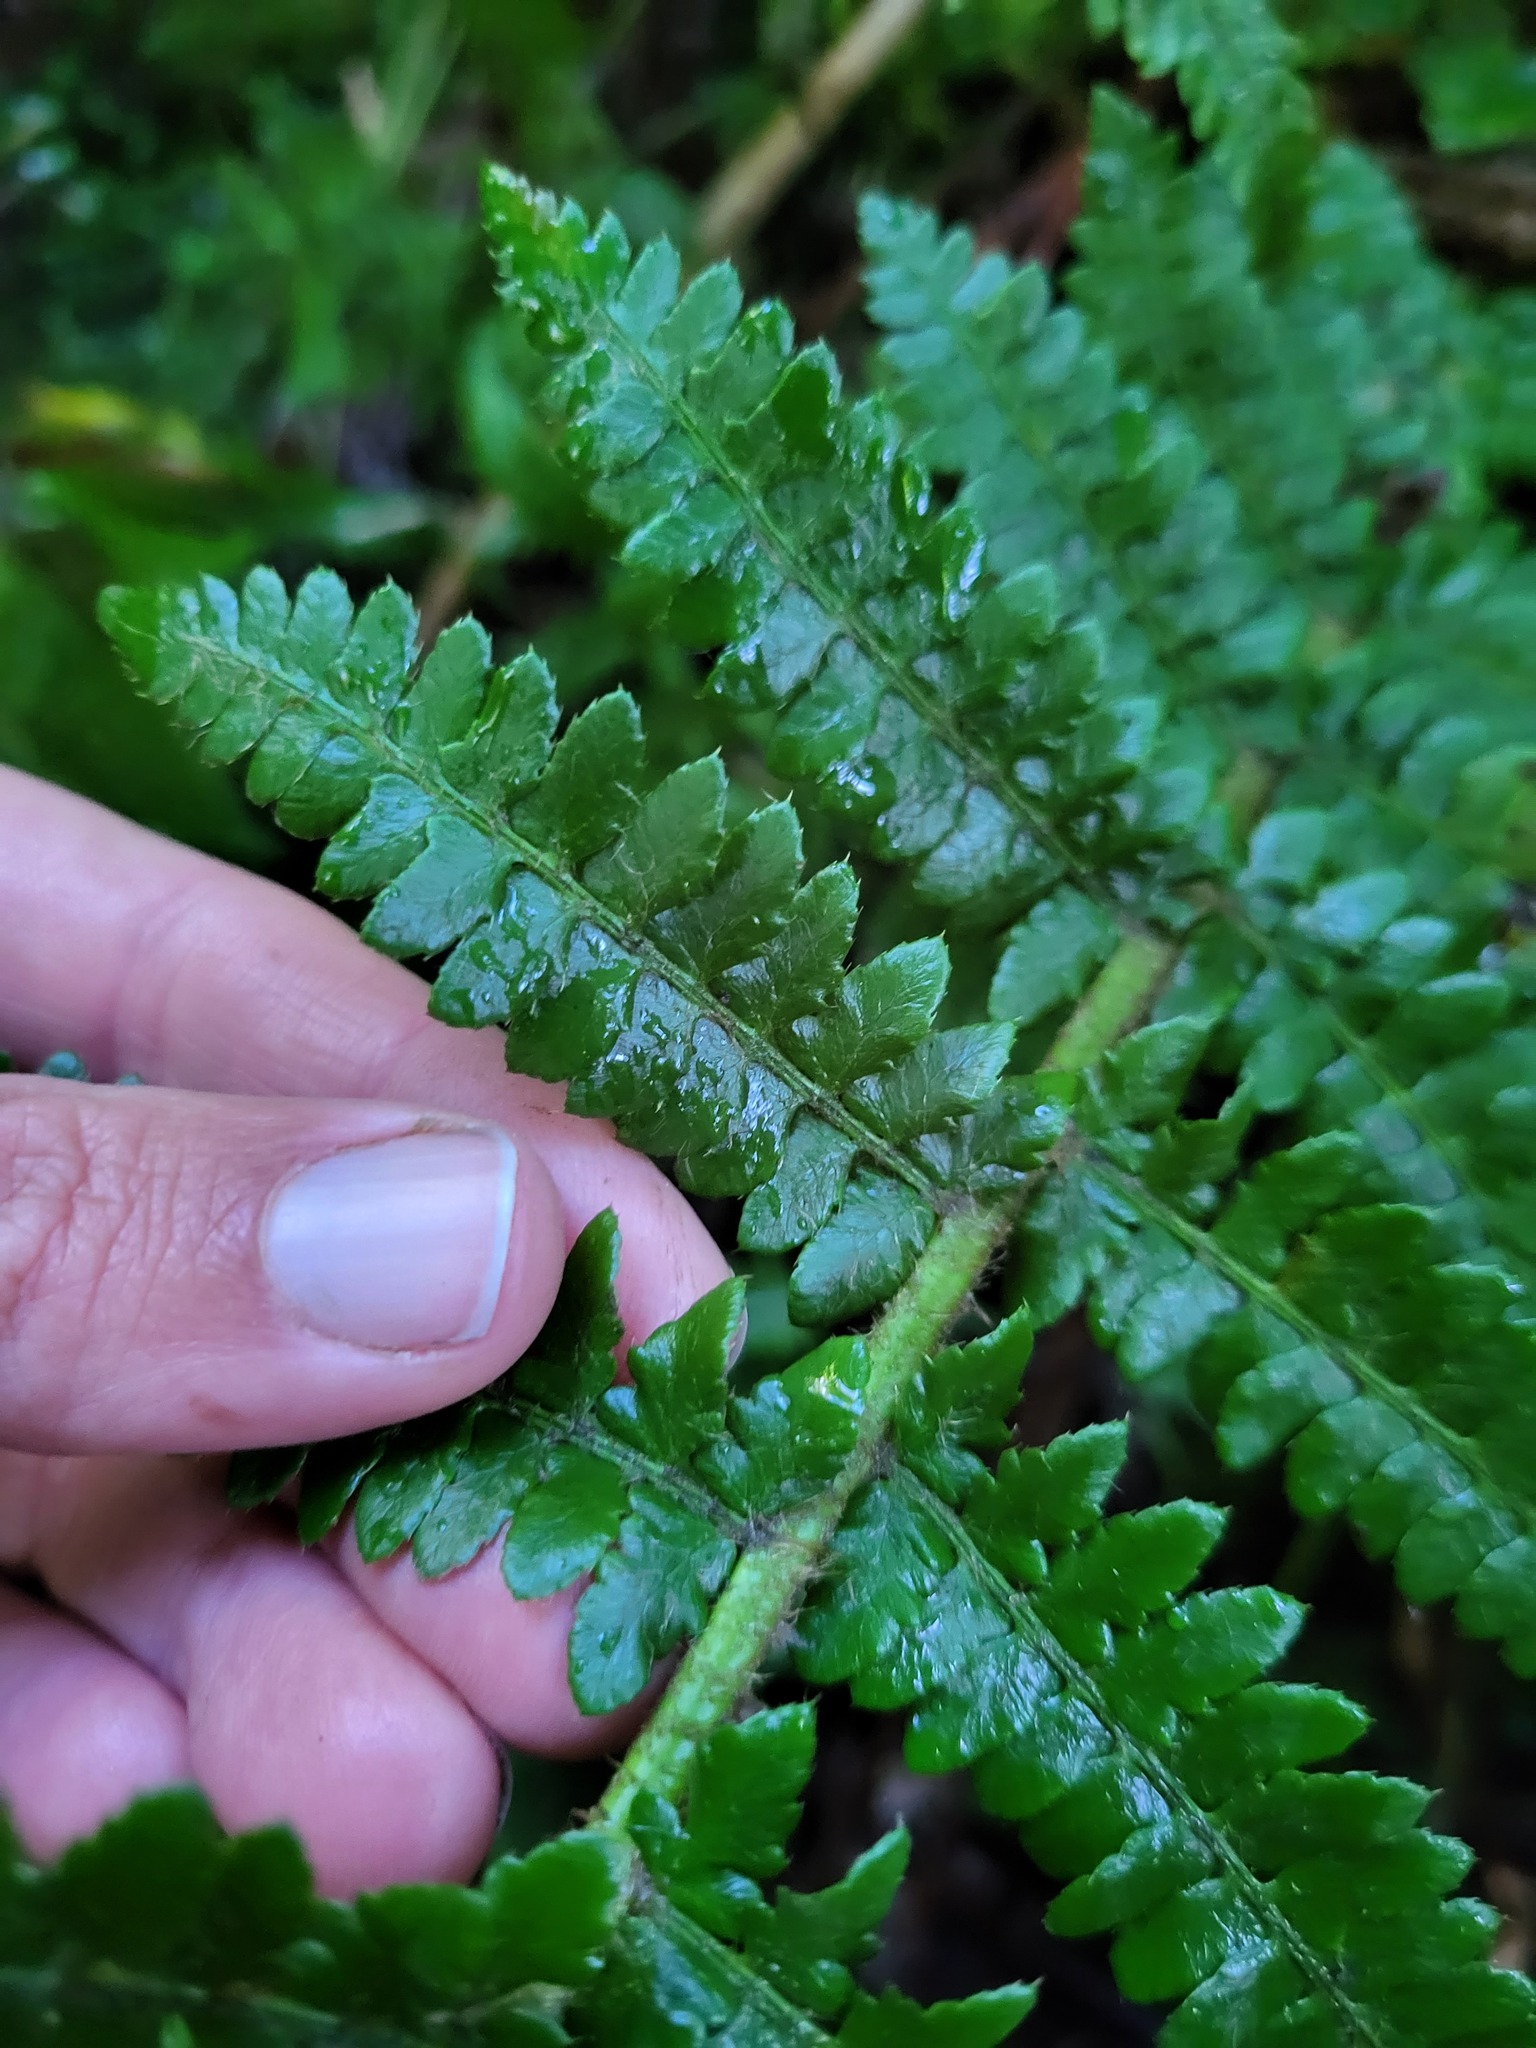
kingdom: Plantae
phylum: Tracheophyta
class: Polypodiopsida
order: Polypodiales
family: Dryopteridaceae
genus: Polystichum
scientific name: Polystichum braunii
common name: Braun's holly fern
